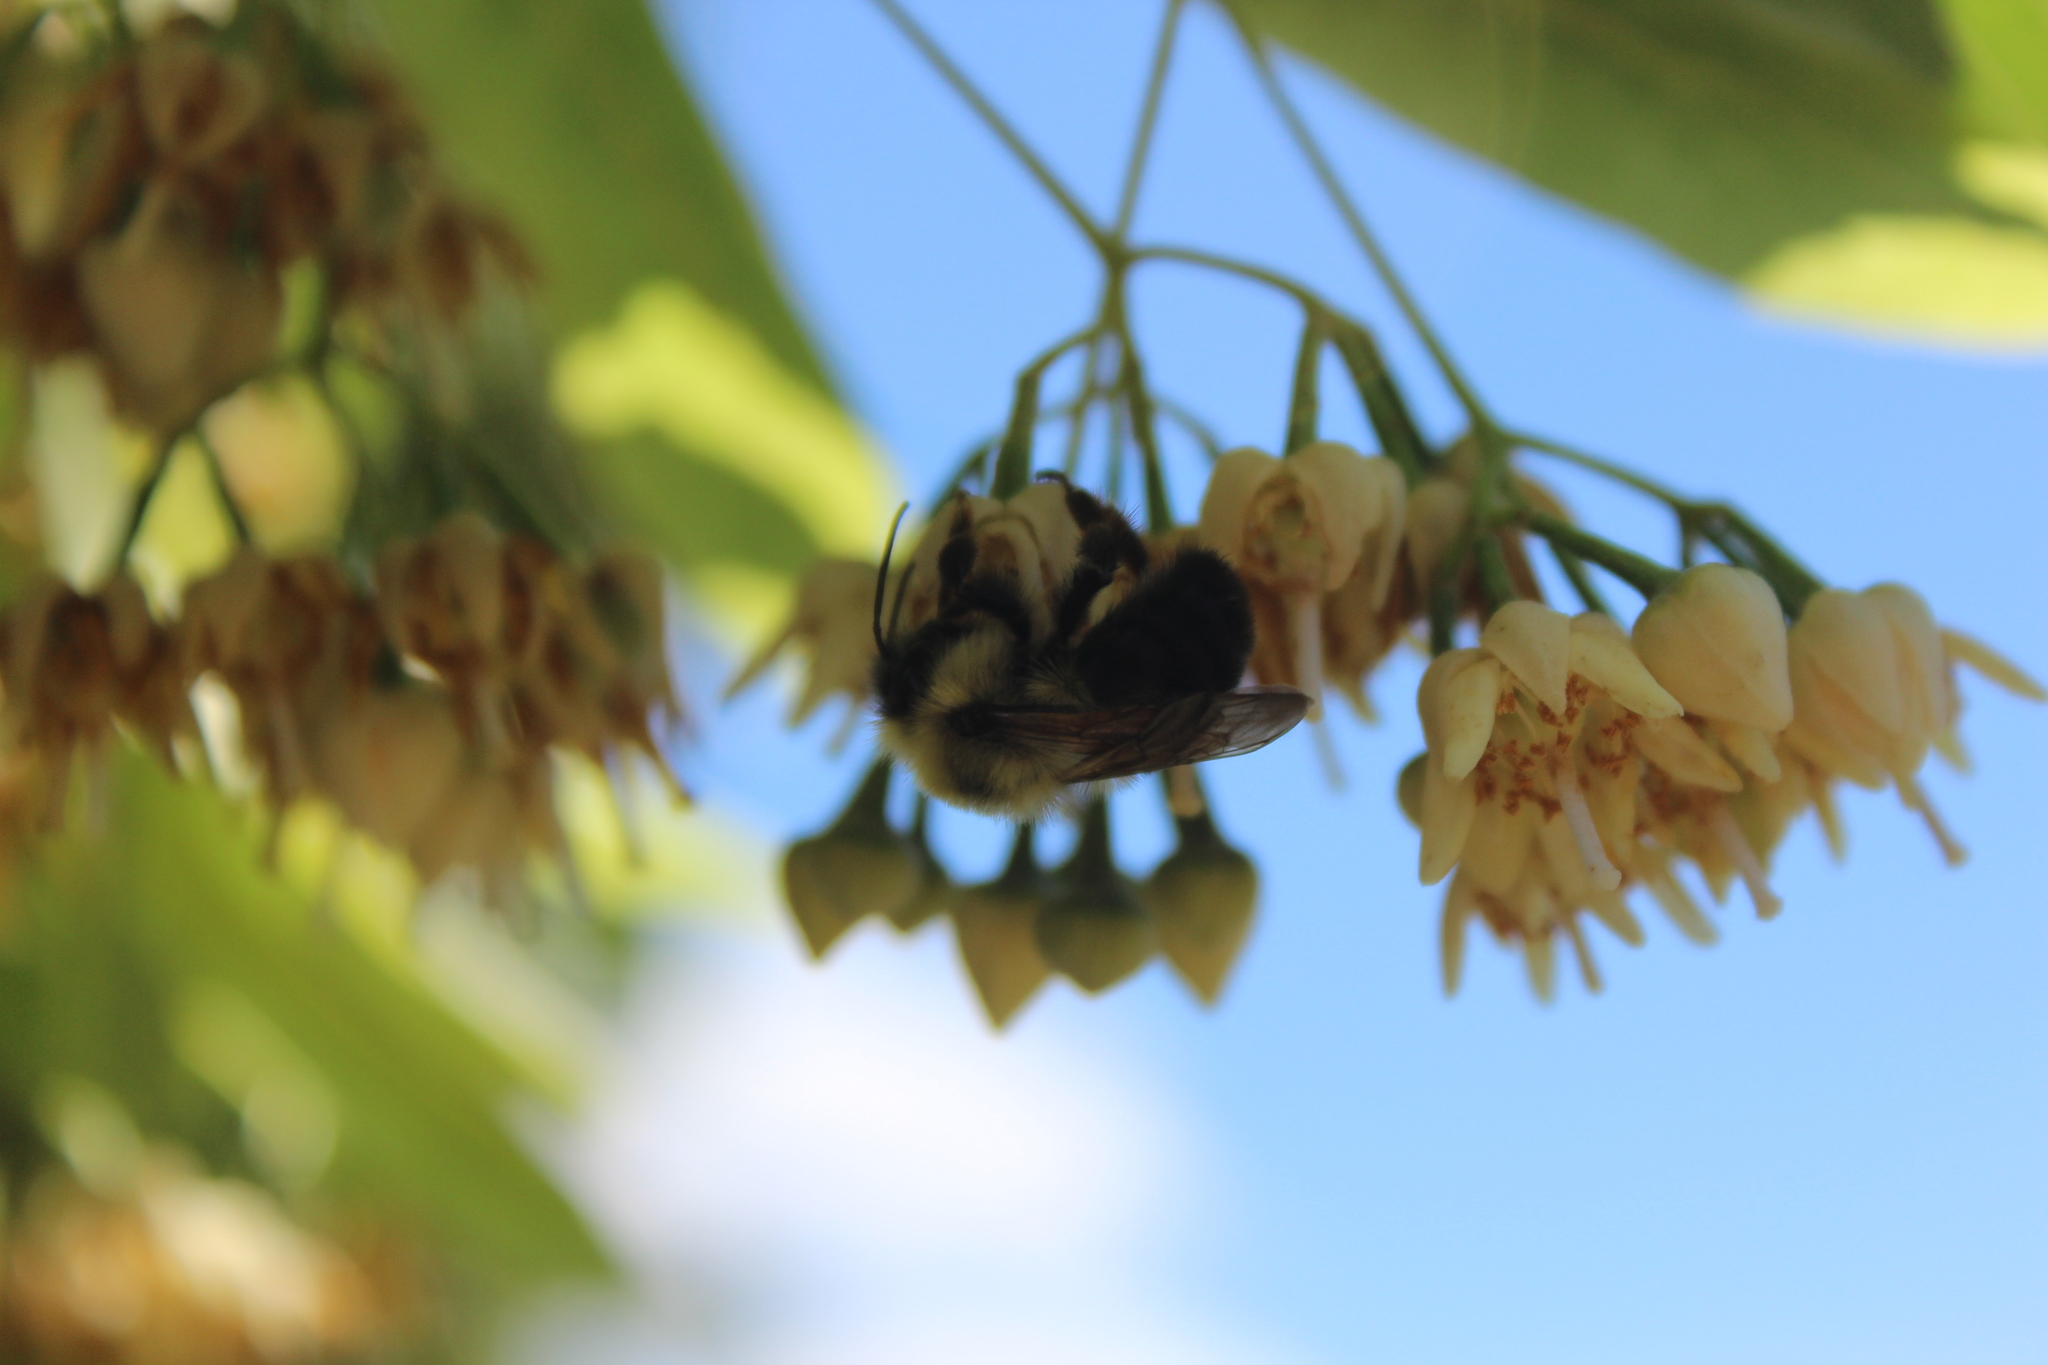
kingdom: Animalia
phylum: Arthropoda
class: Insecta
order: Hymenoptera
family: Apidae
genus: Bombus
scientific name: Bombus bimaculatus
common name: Two-spotted bumble bee
